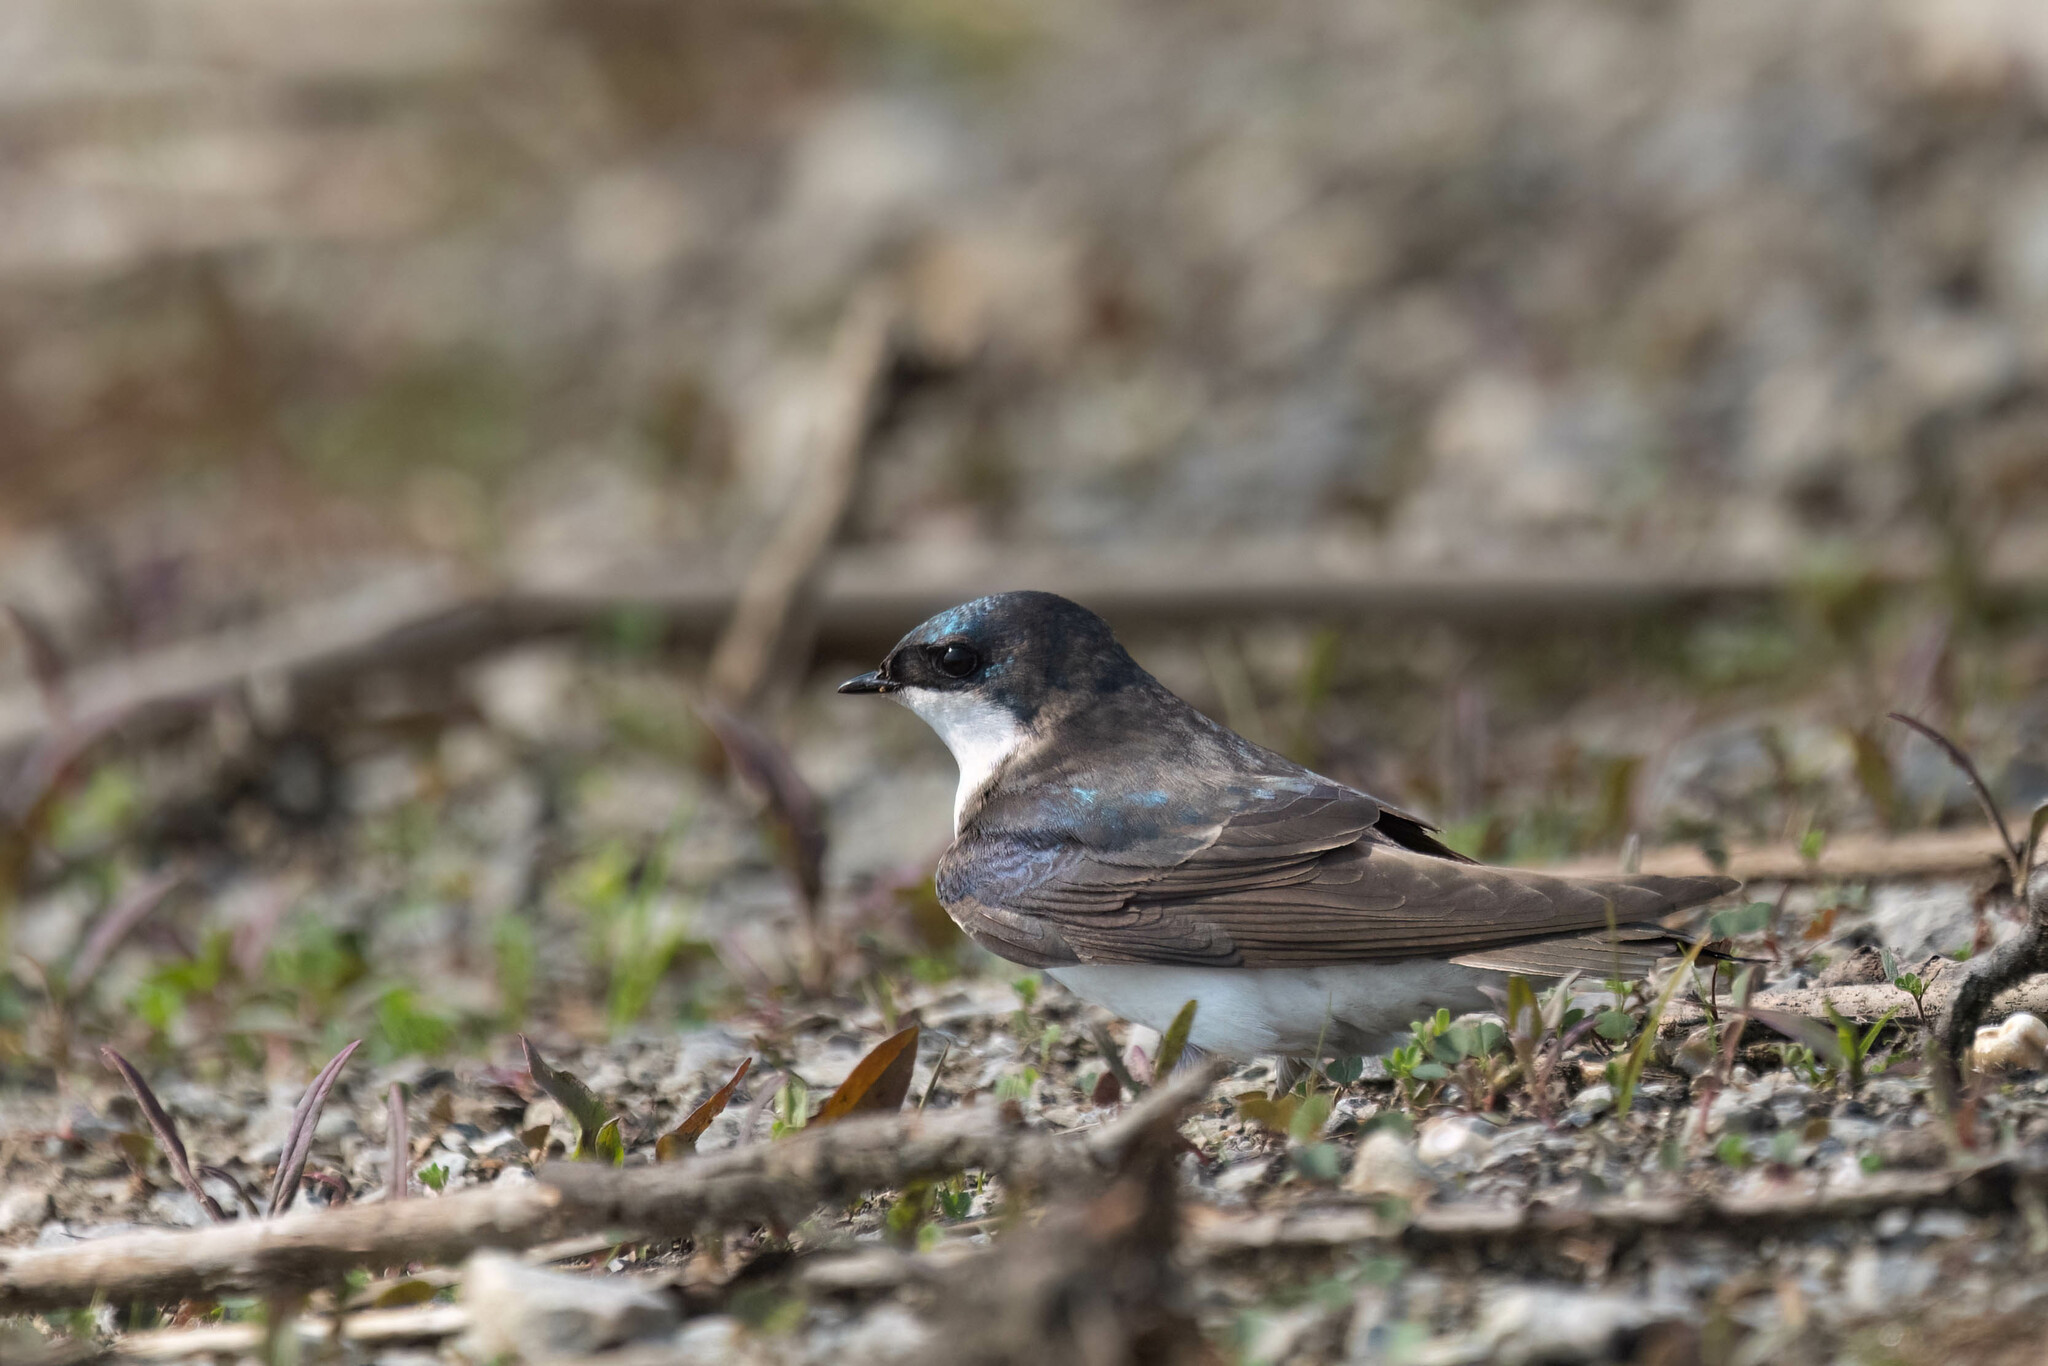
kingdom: Animalia
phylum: Chordata
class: Aves
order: Passeriformes
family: Hirundinidae
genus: Tachycineta
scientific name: Tachycineta bicolor
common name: Tree swallow
